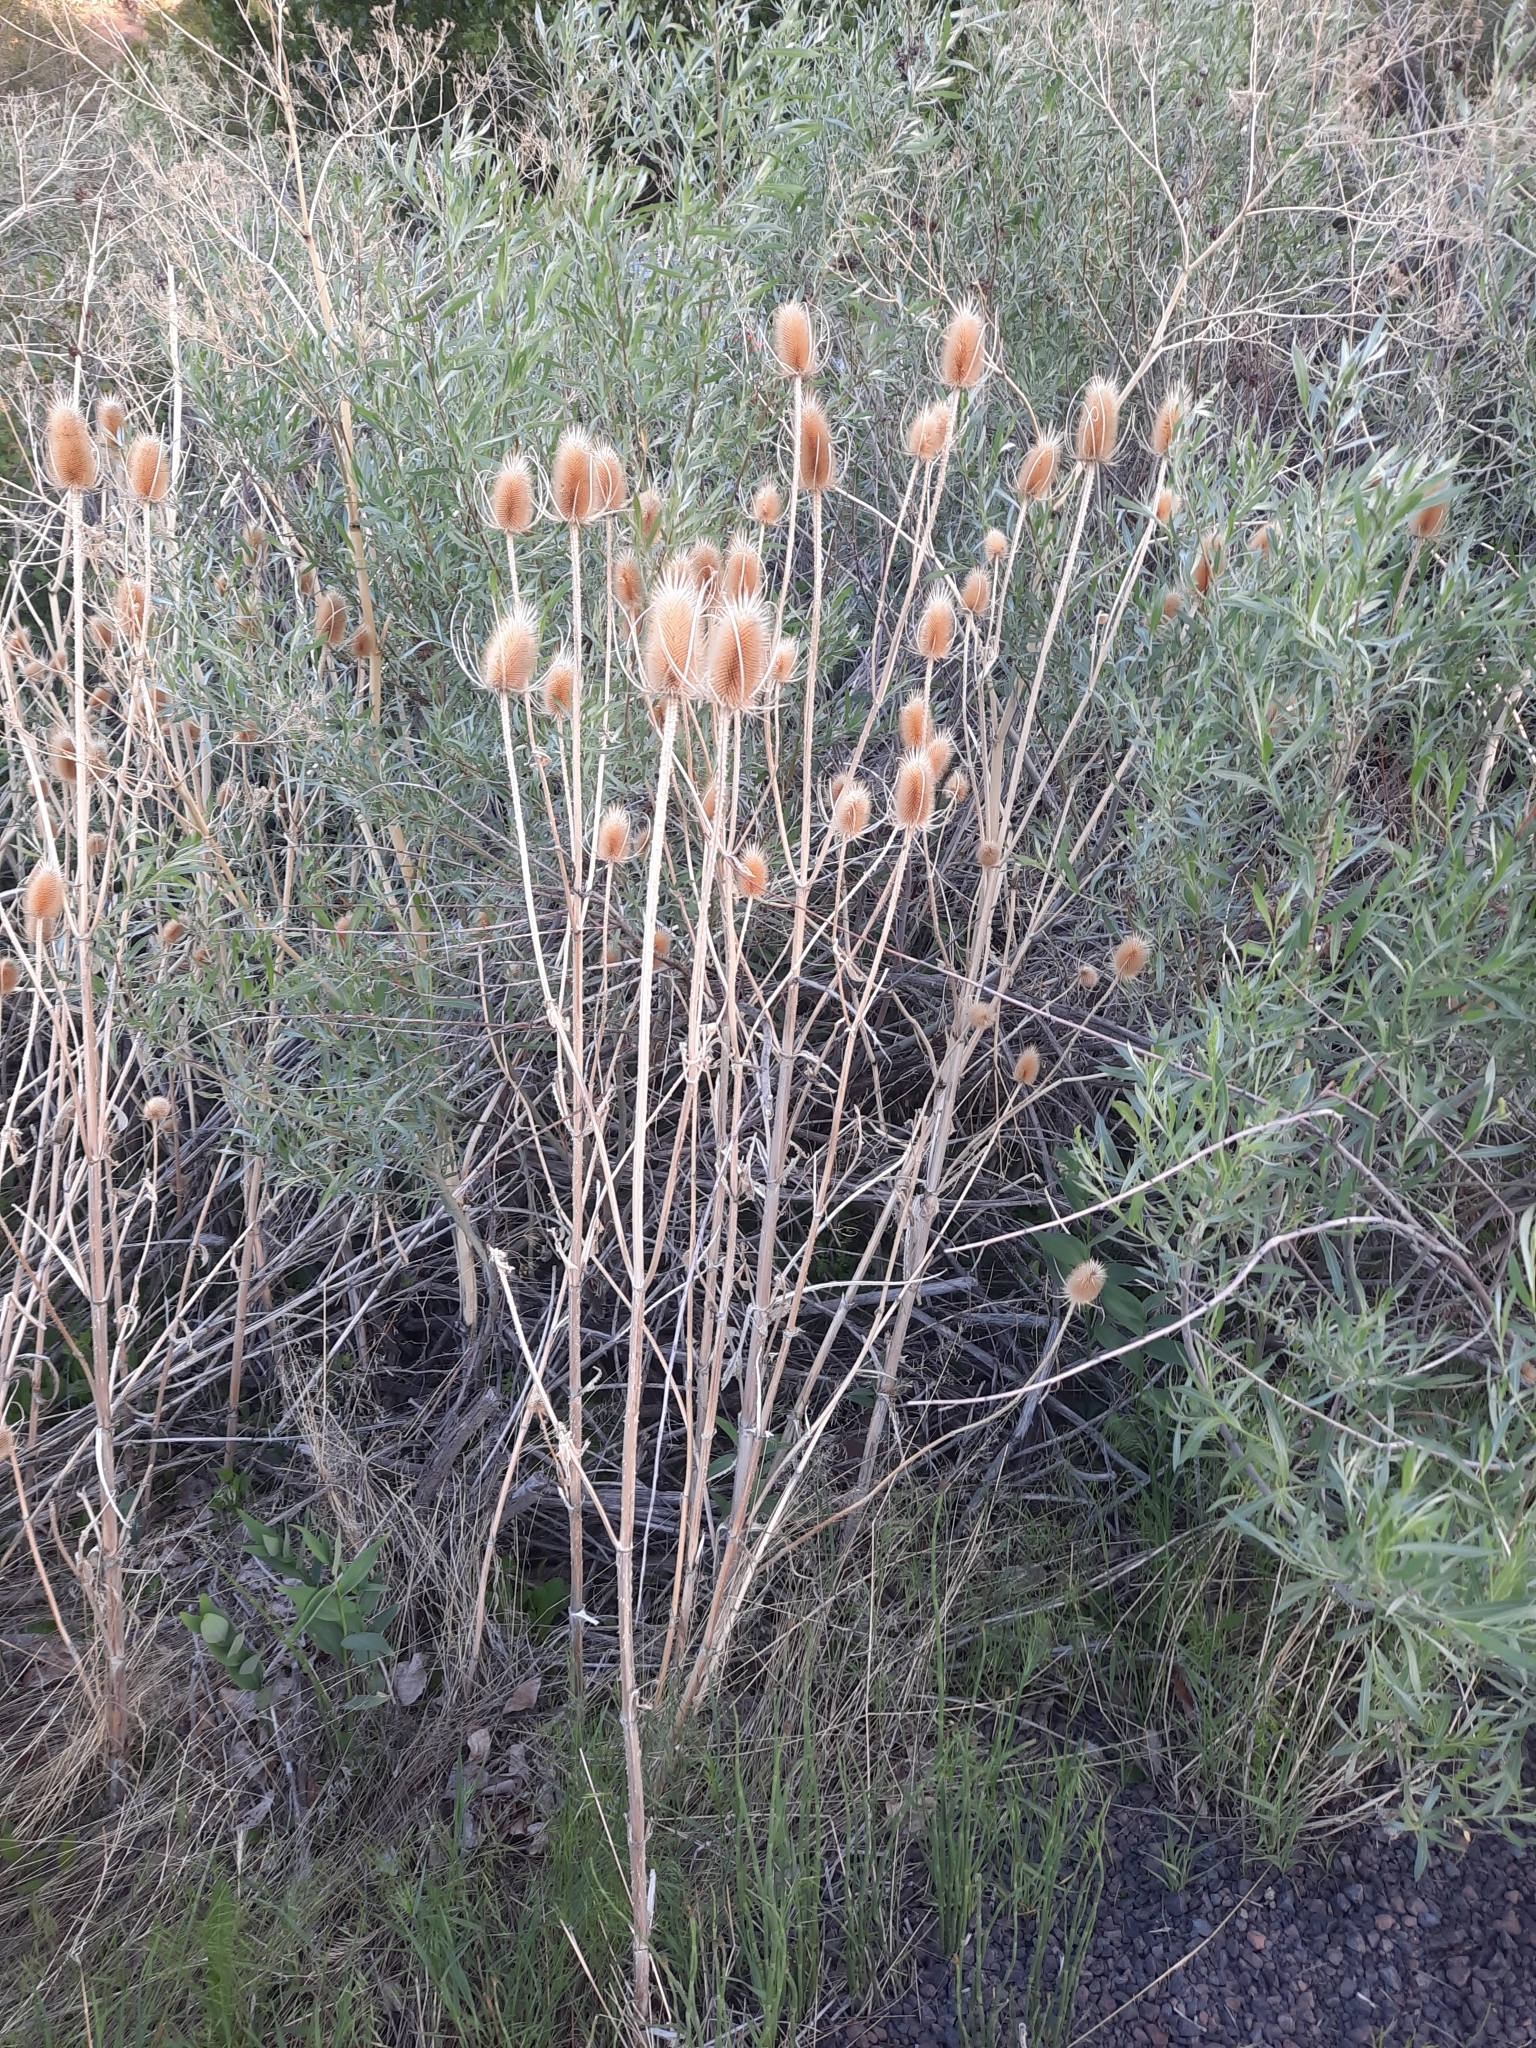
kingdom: Plantae
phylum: Tracheophyta
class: Magnoliopsida
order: Dipsacales
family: Caprifoliaceae
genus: Dipsacus
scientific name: Dipsacus fullonum
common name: Teasel
